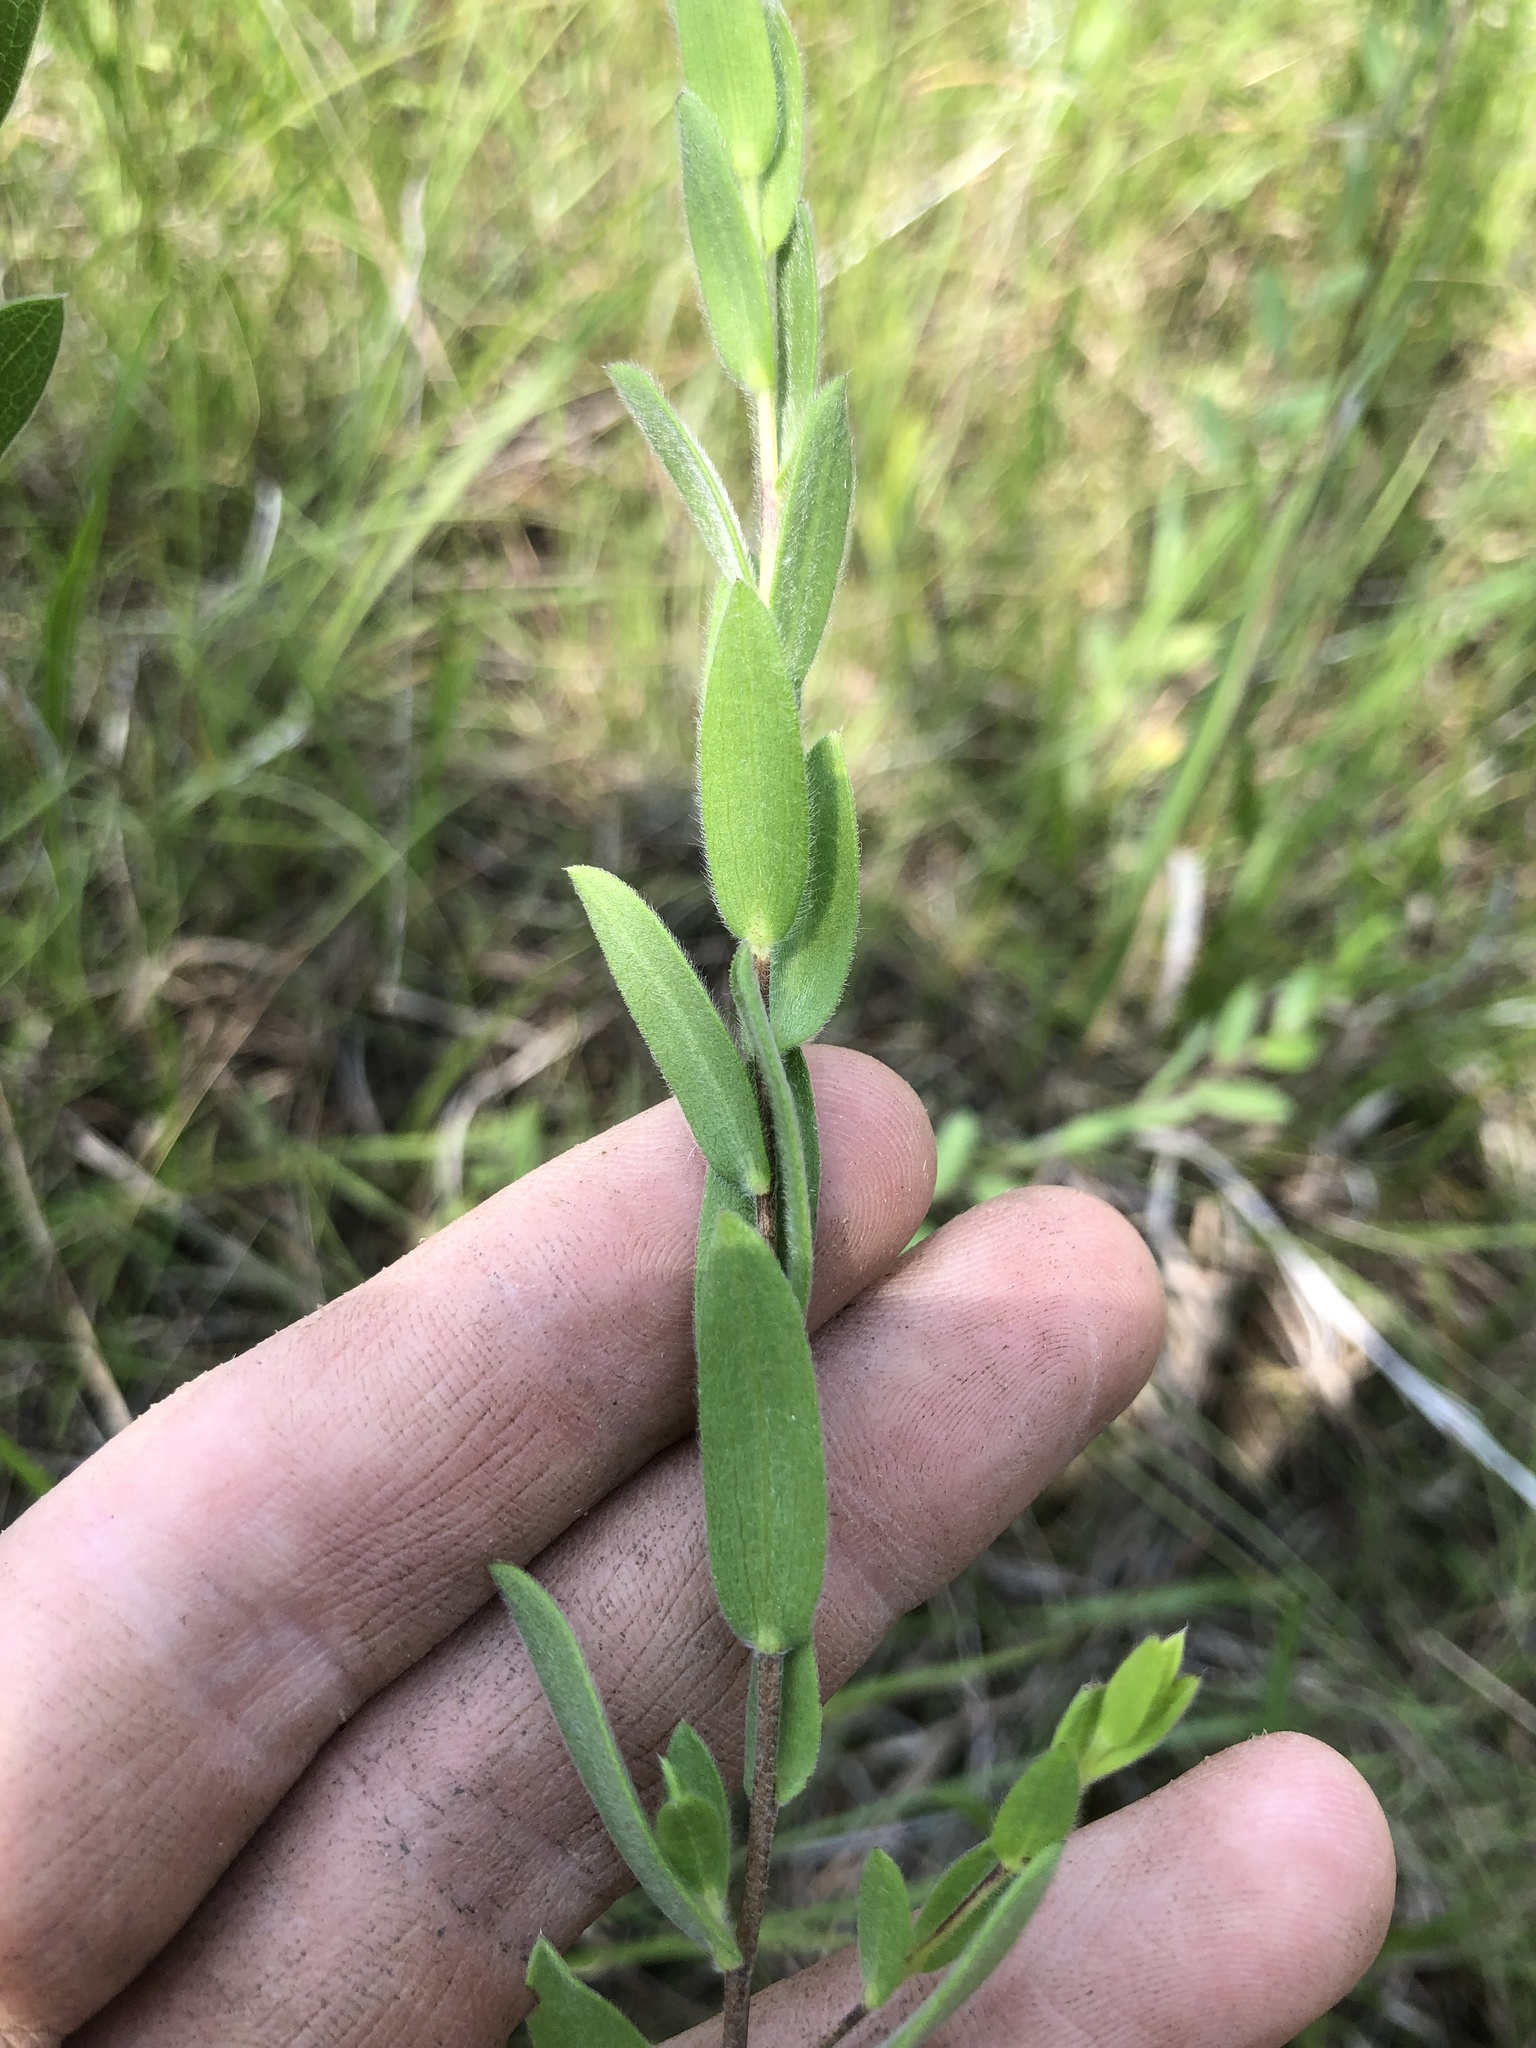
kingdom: Plantae
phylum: Tracheophyta
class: Magnoliopsida
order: Asterales
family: Asteraceae
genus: Symphyotrichum
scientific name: Symphyotrichum pratense
